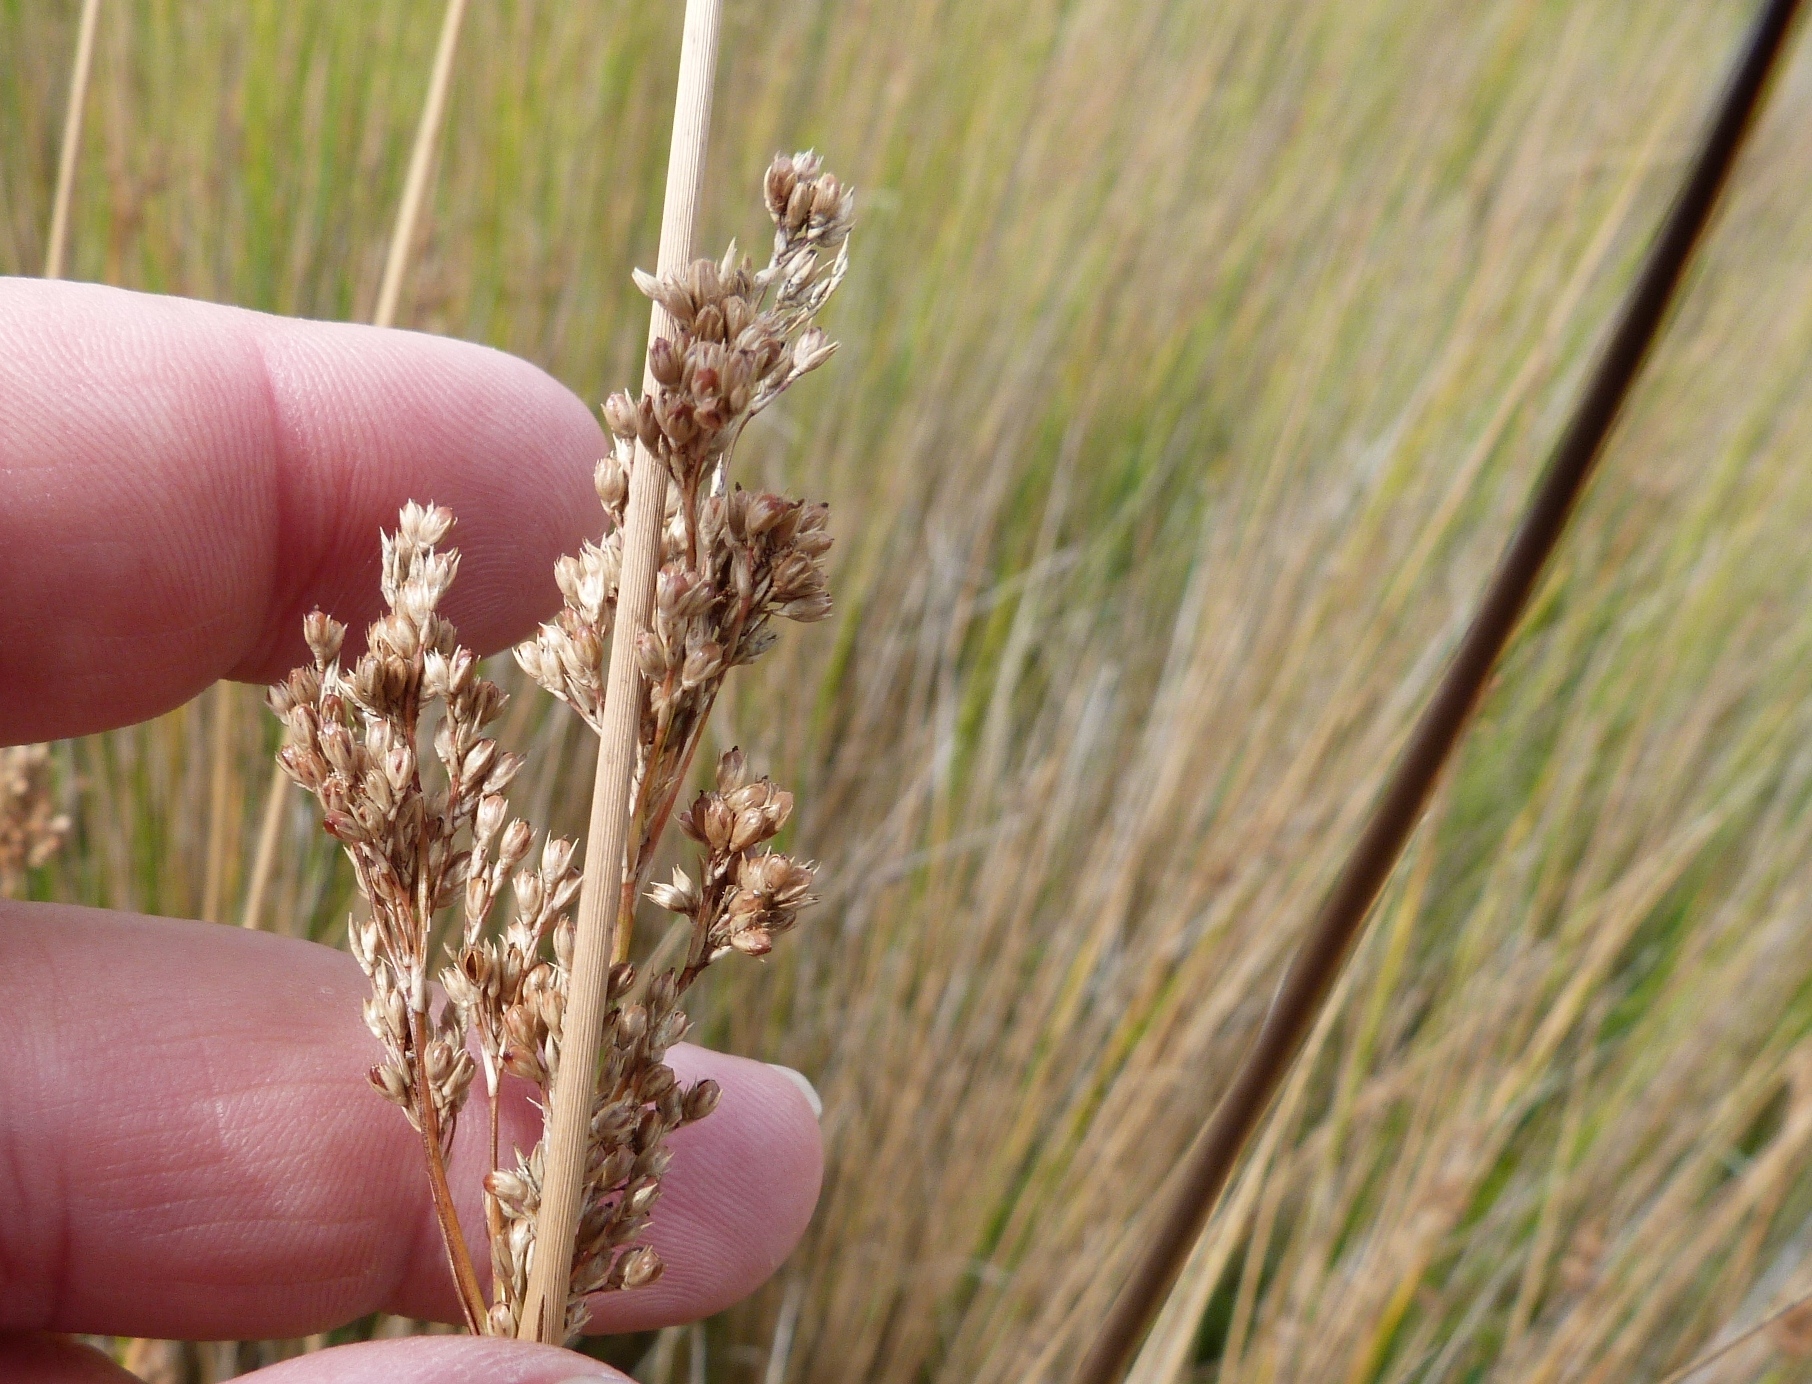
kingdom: Plantae
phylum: Tracheophyta
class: Liliopsida
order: Poales
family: Juncaceae
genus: Juncus
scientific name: Juncus sarophorus
